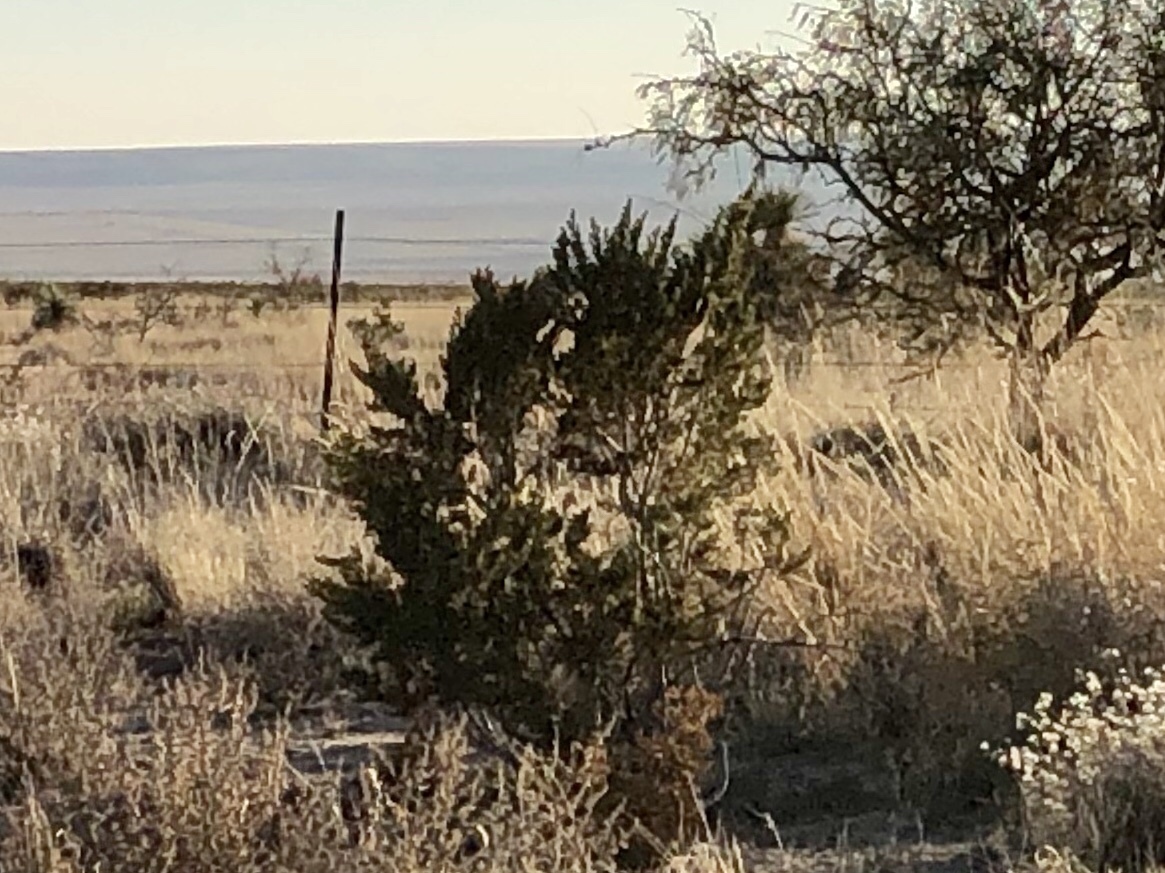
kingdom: Plantae
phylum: Tracheophyta
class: Magnoliopsida
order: Zygophyllales
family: Zygophyllaceae
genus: Larrea
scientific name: Larrea tridentata
